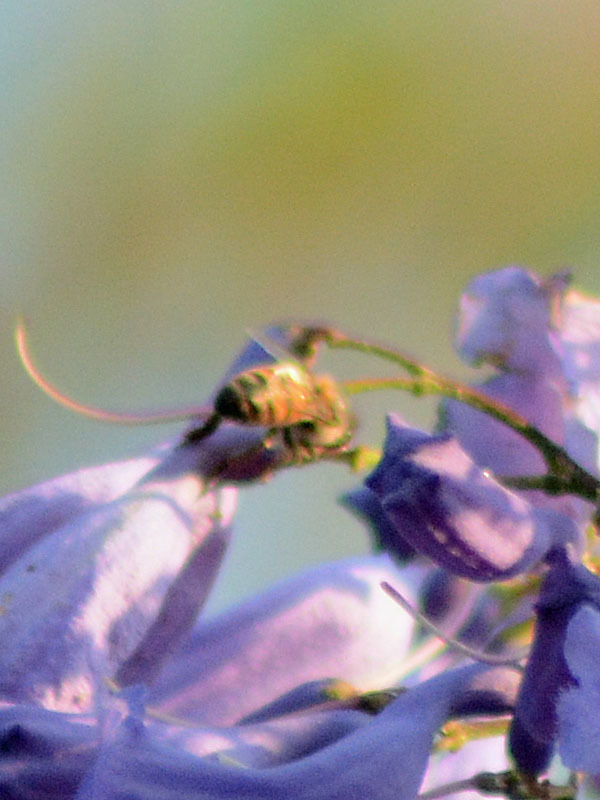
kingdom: Animalia
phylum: Arthropoda
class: Insecta
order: Hymenoptera
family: Apidae
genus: Apis
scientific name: Apis mellifera
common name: Honey bee
